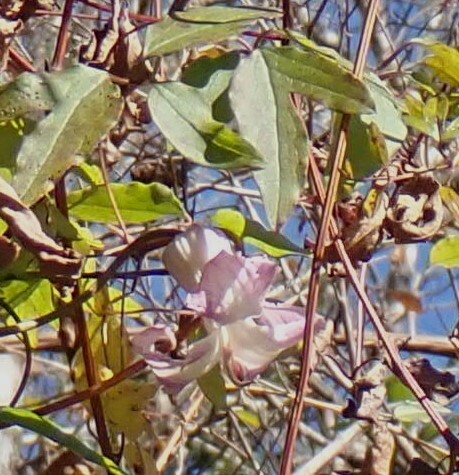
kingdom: Plantae
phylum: Tracheophyta
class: Magnoliopsida
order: Ranunculales
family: Ranunculaceae
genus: Clematis
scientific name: Clematis crispa
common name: Curly clematis
